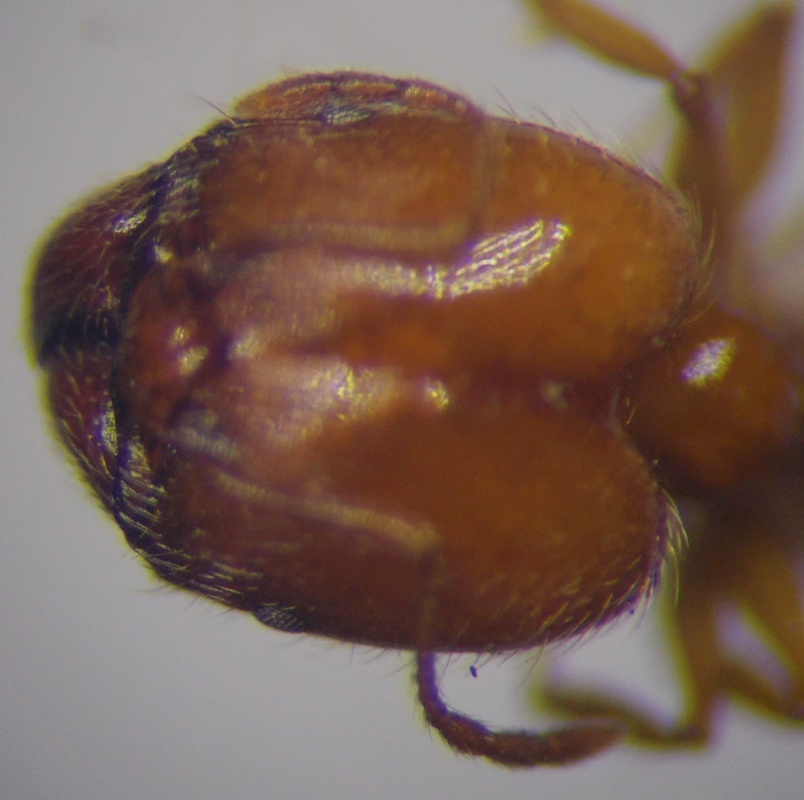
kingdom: Animalia
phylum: Arthropoda
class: Insecta
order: Hymenoptera
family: Formicidae
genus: Pheidole
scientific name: Pheidole pallidula
